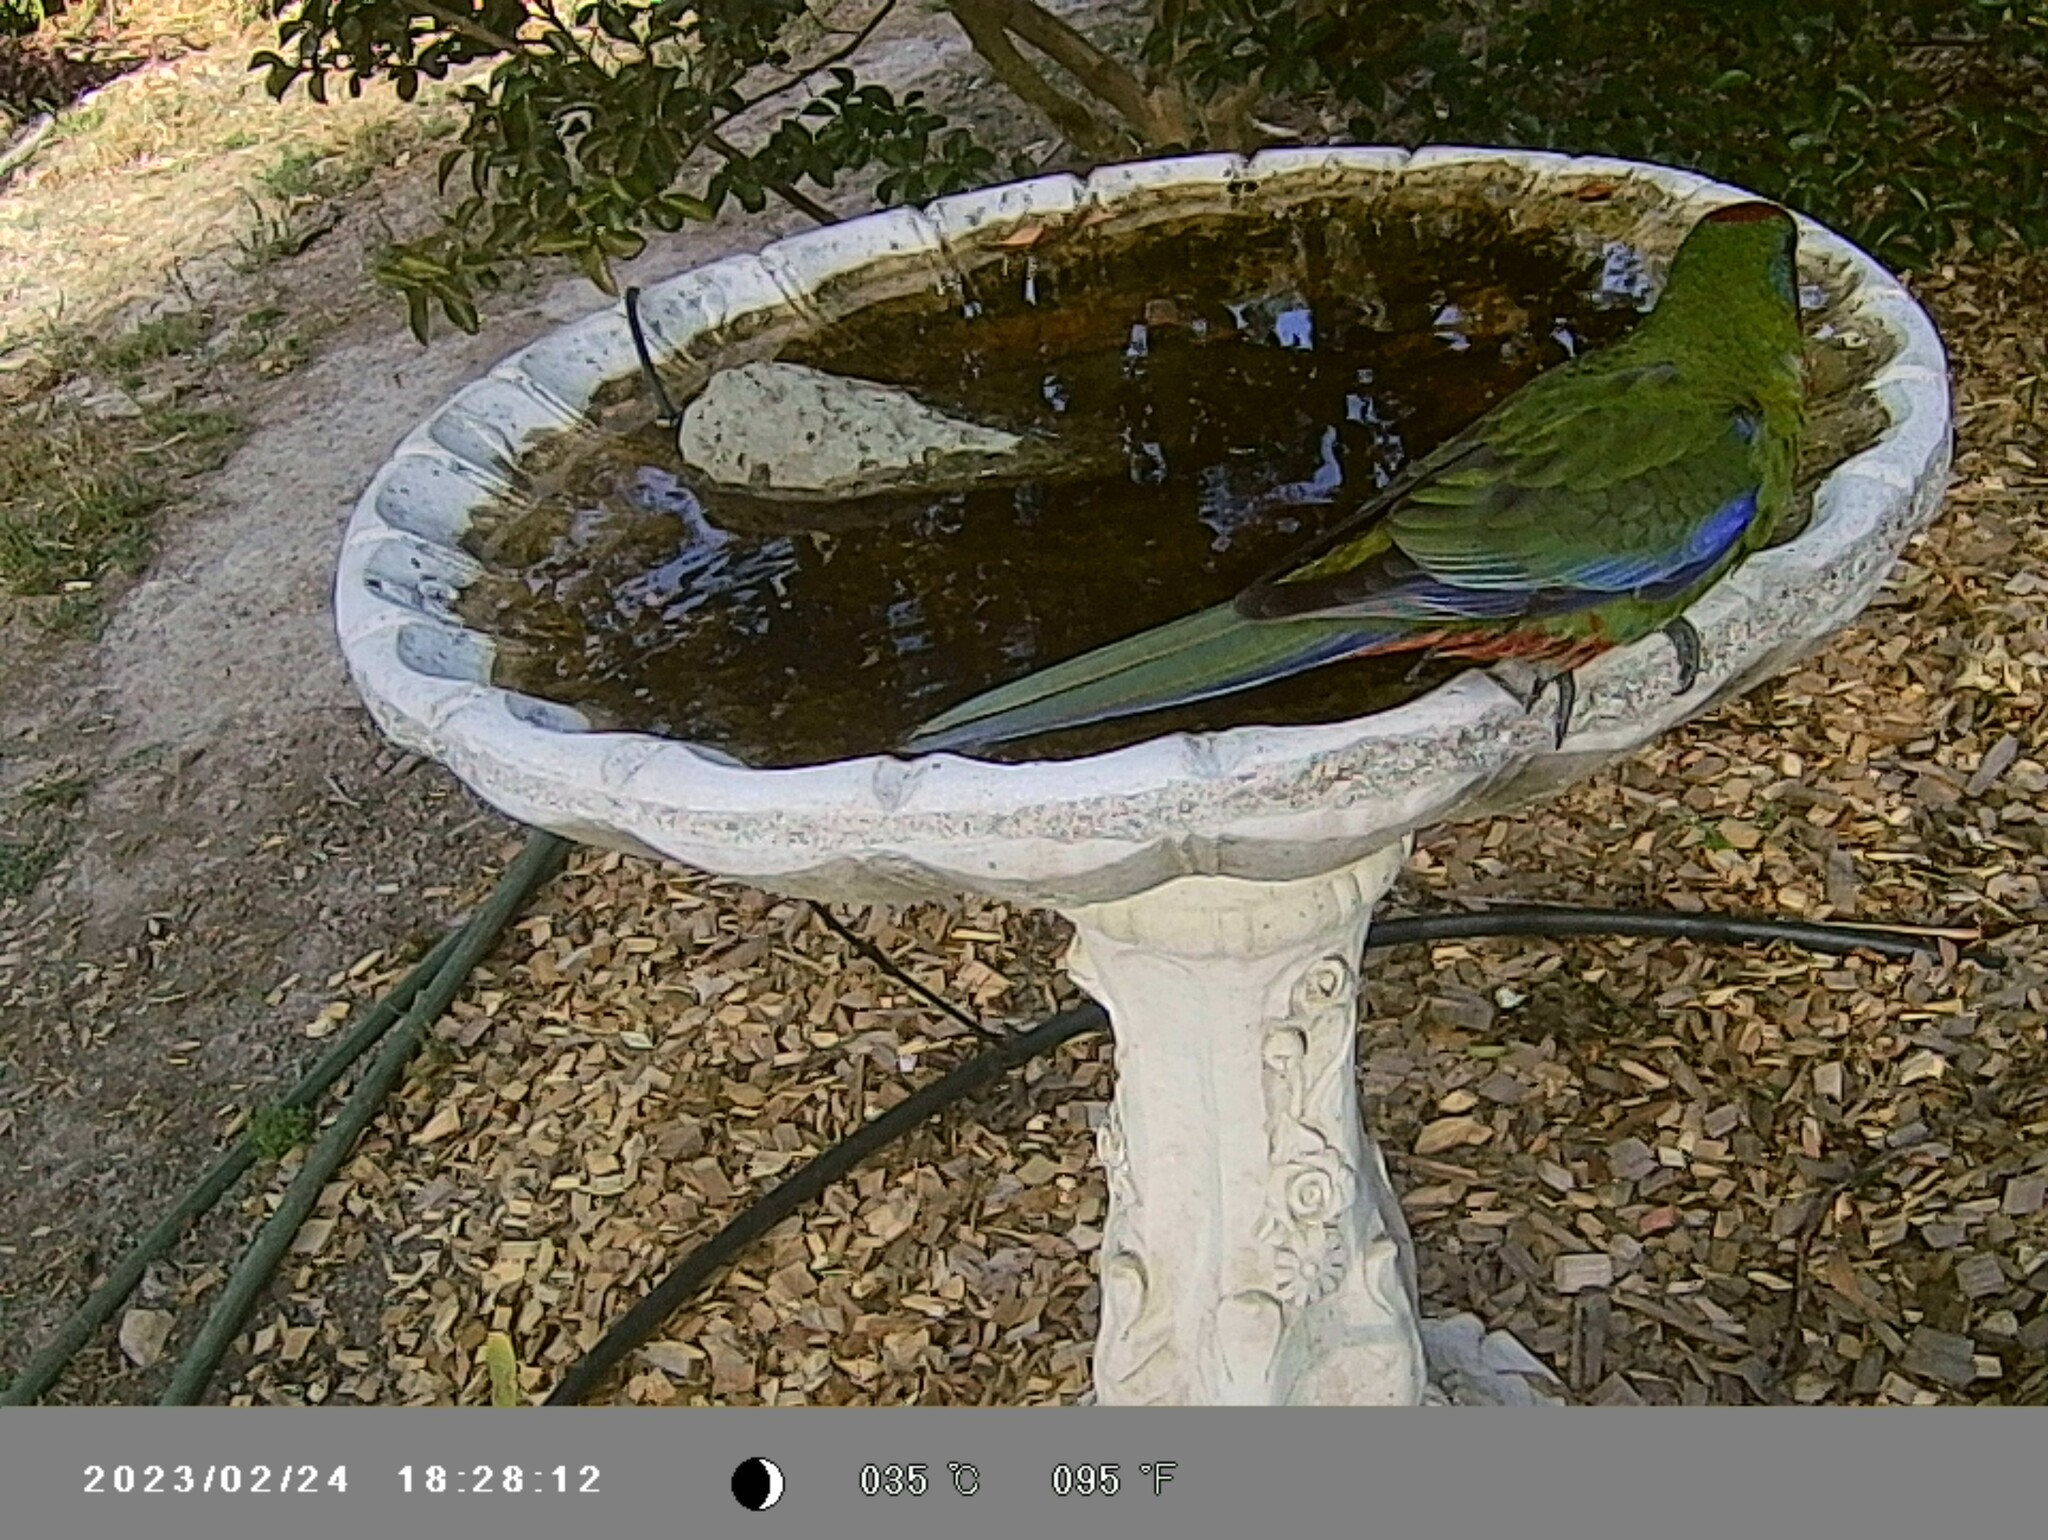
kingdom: Animalia
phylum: Chordata
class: Aves
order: Psittaciformes
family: Psittacidae
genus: Platycercus
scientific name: Platycercus elegans
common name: Crimson rosella
